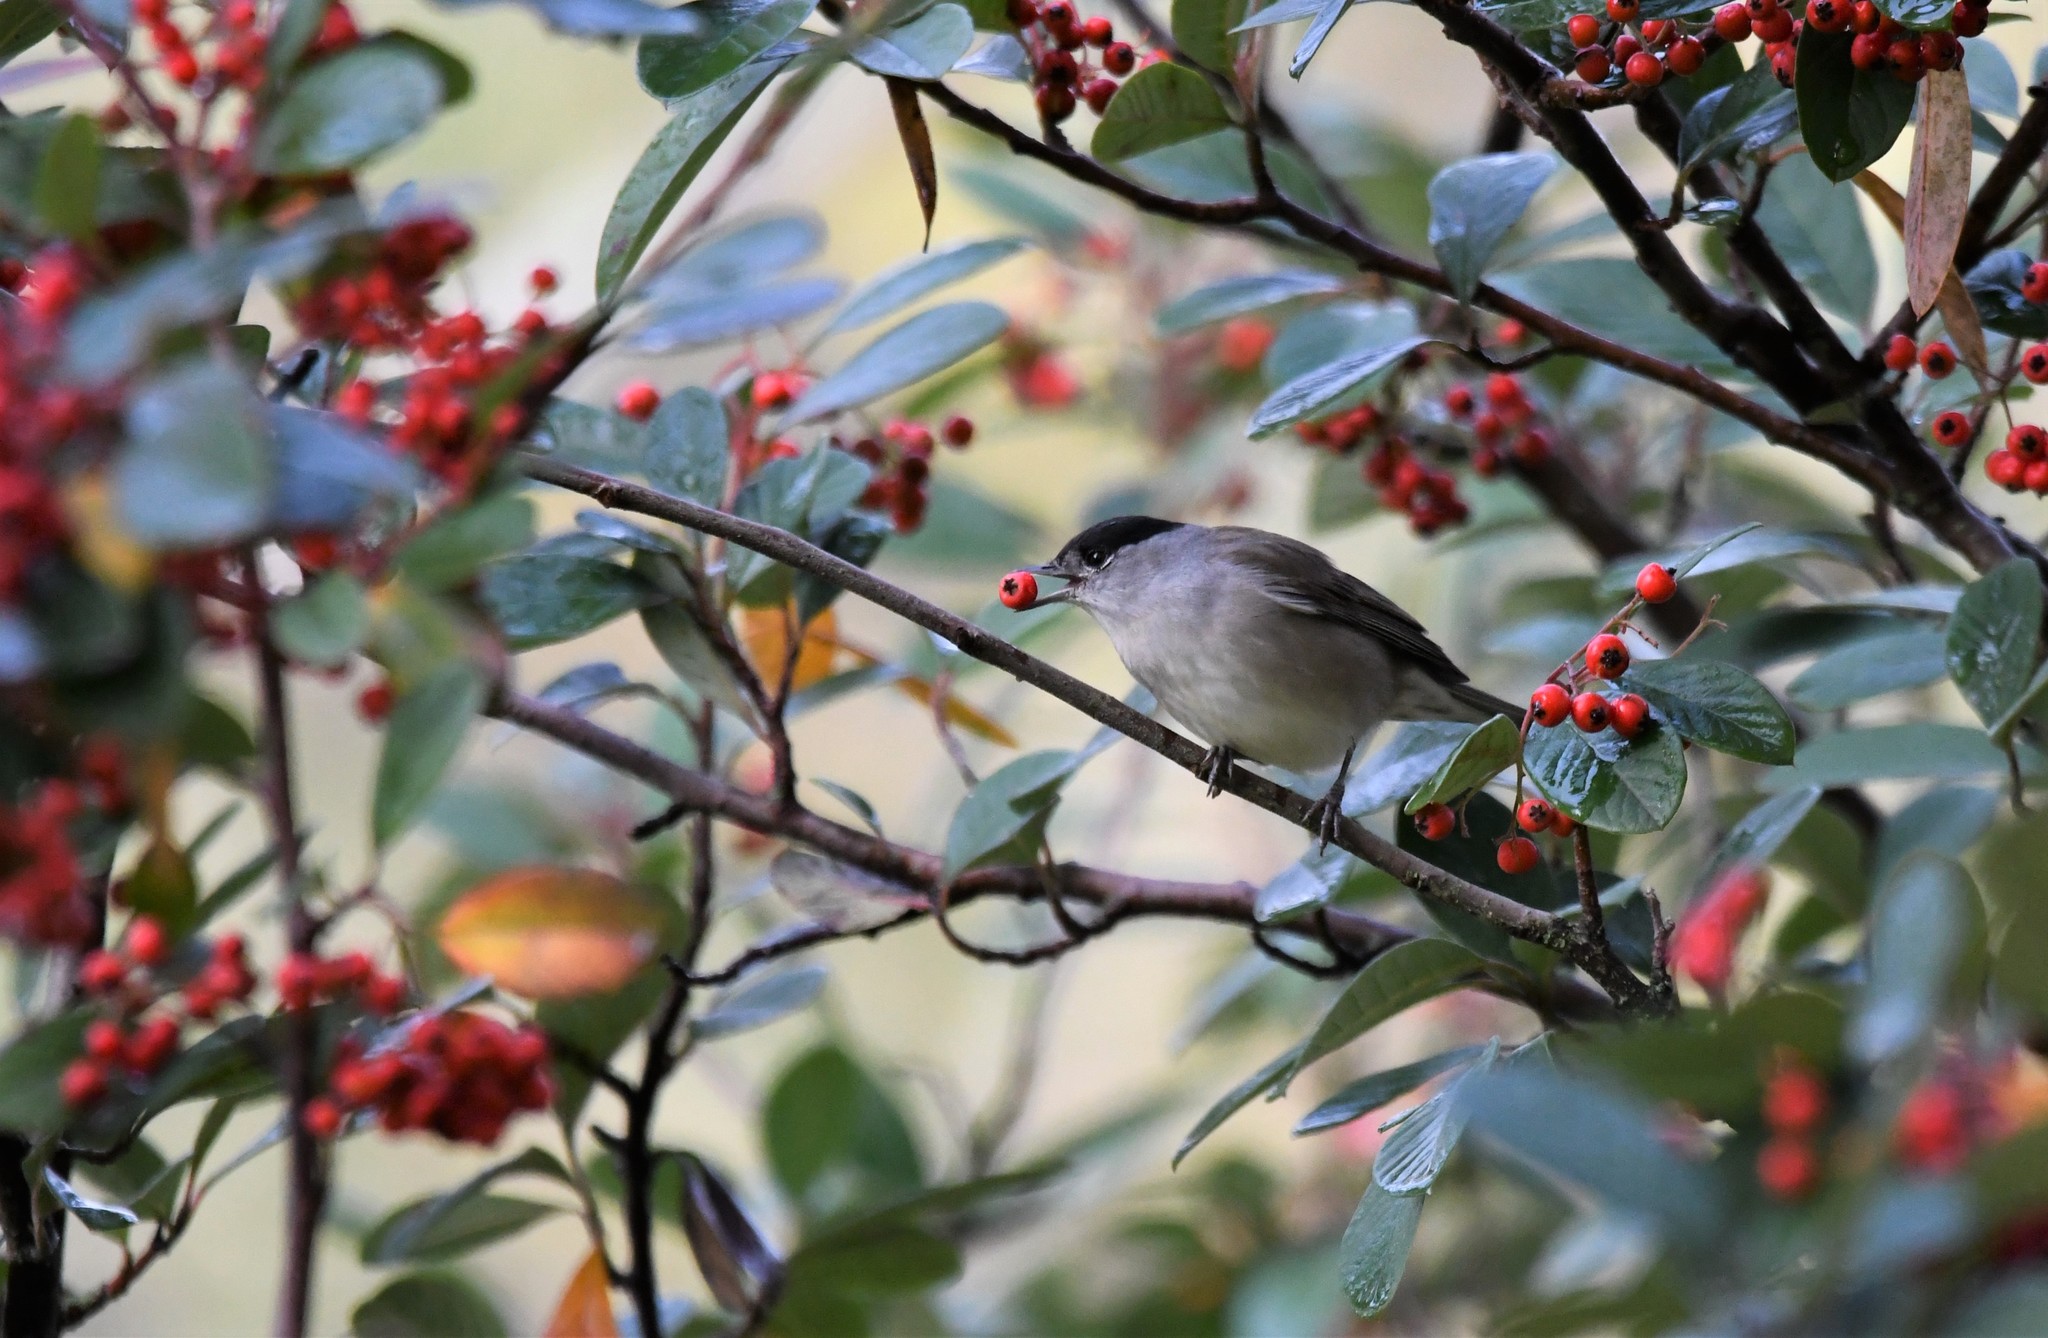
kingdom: Animalia
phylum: Chordata
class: Aves
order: Passeriformes
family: Sylviidae
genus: Sylvia
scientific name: Sylvia atricapilla
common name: Eurasian blackcap
